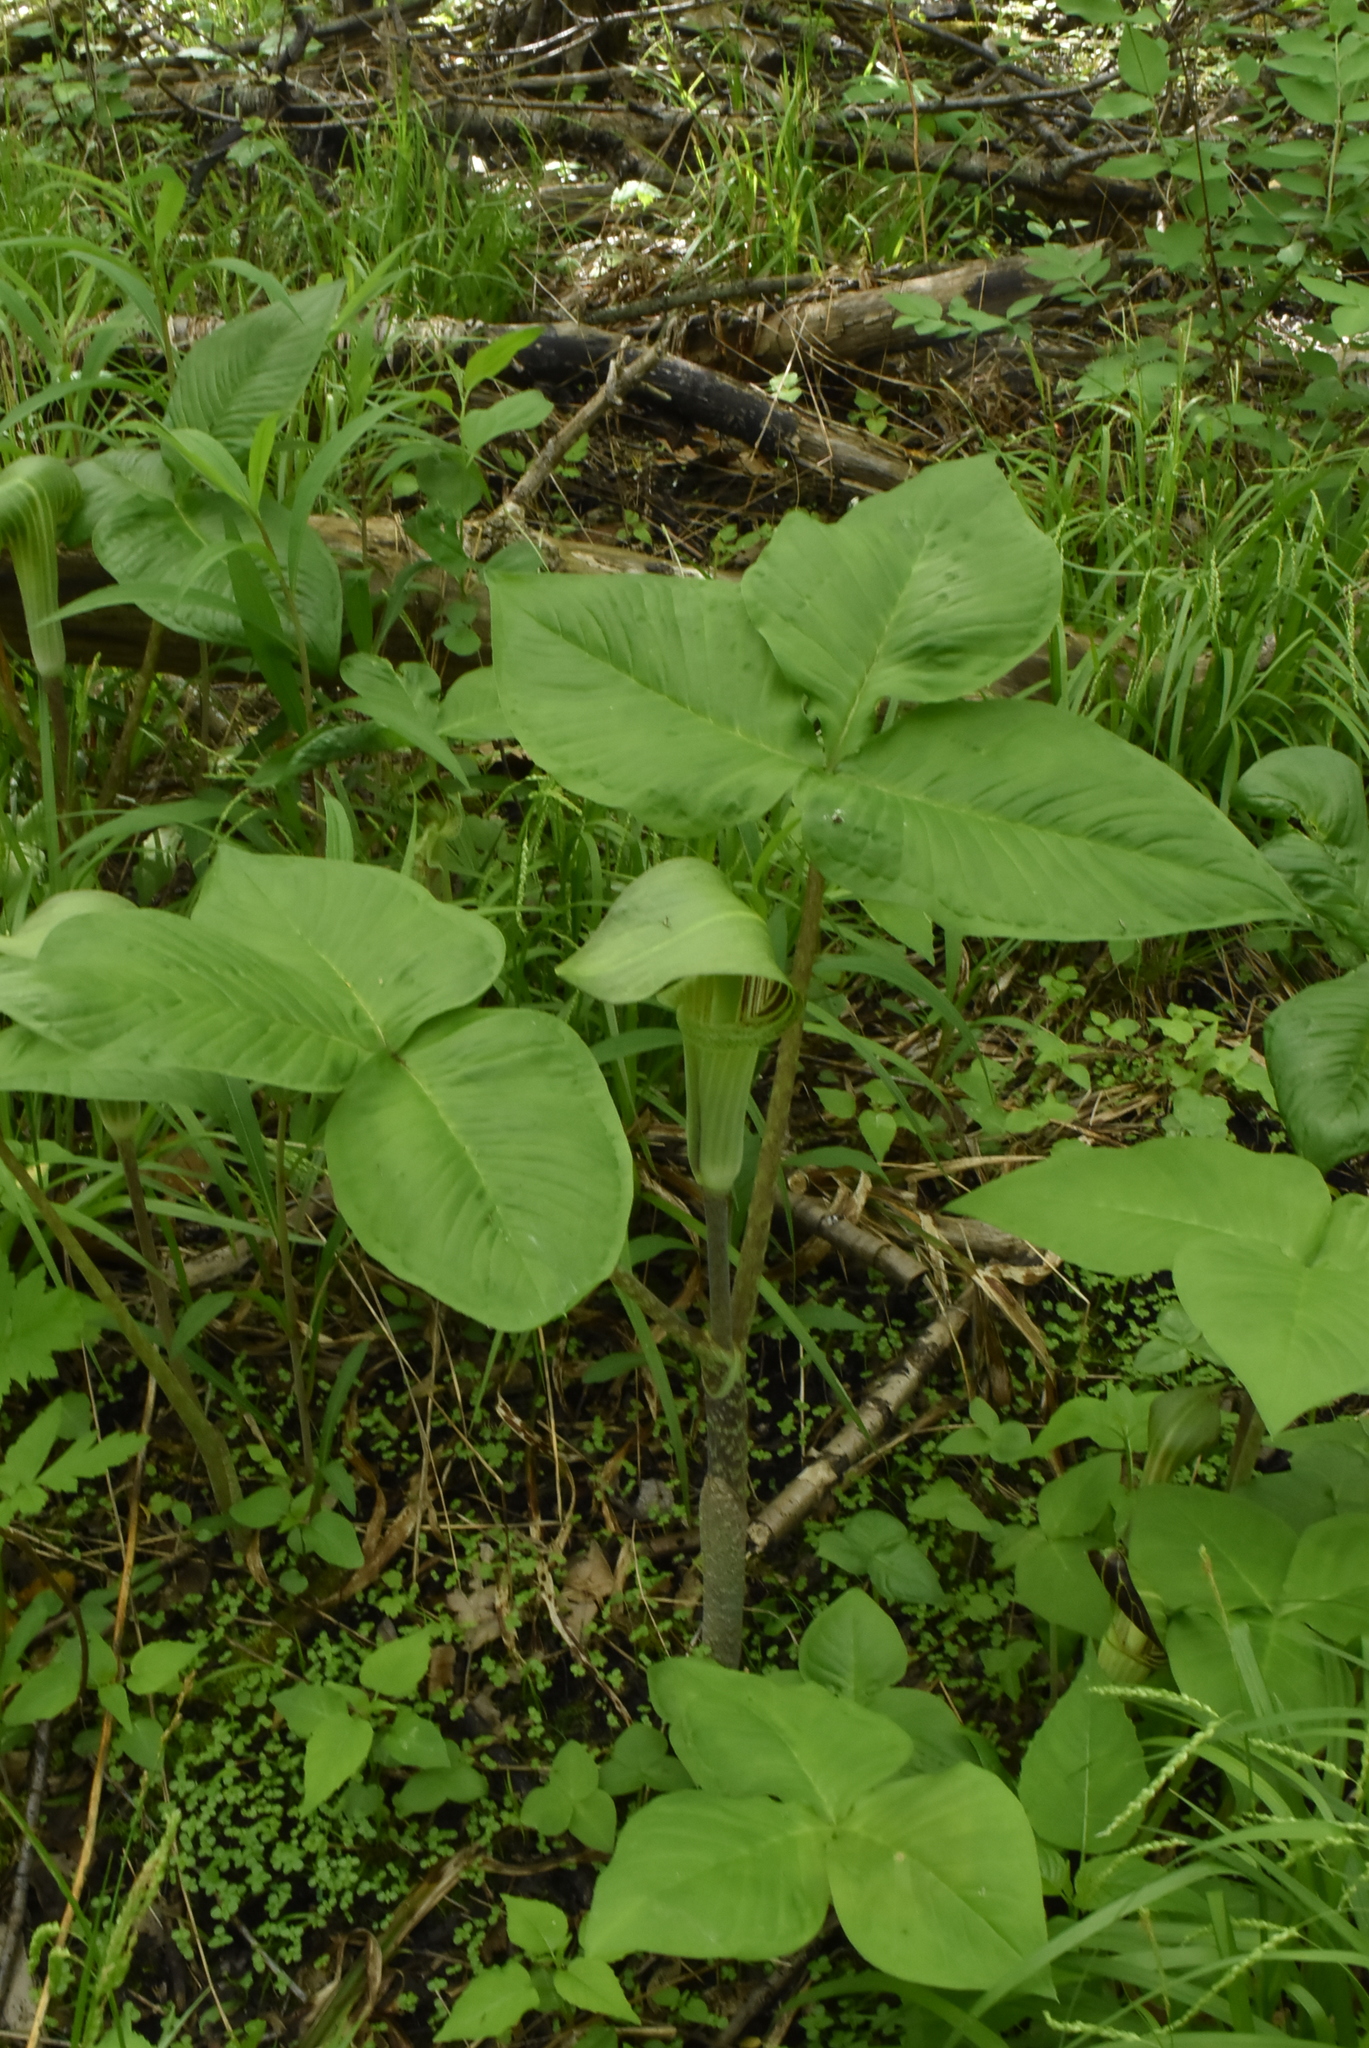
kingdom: Plantae
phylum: Tracheophyta
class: Liliopsida
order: Alismatales
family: Araceae
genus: Arisaema
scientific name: Arisaema triphyllum
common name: Jack-in-the-pulpit
